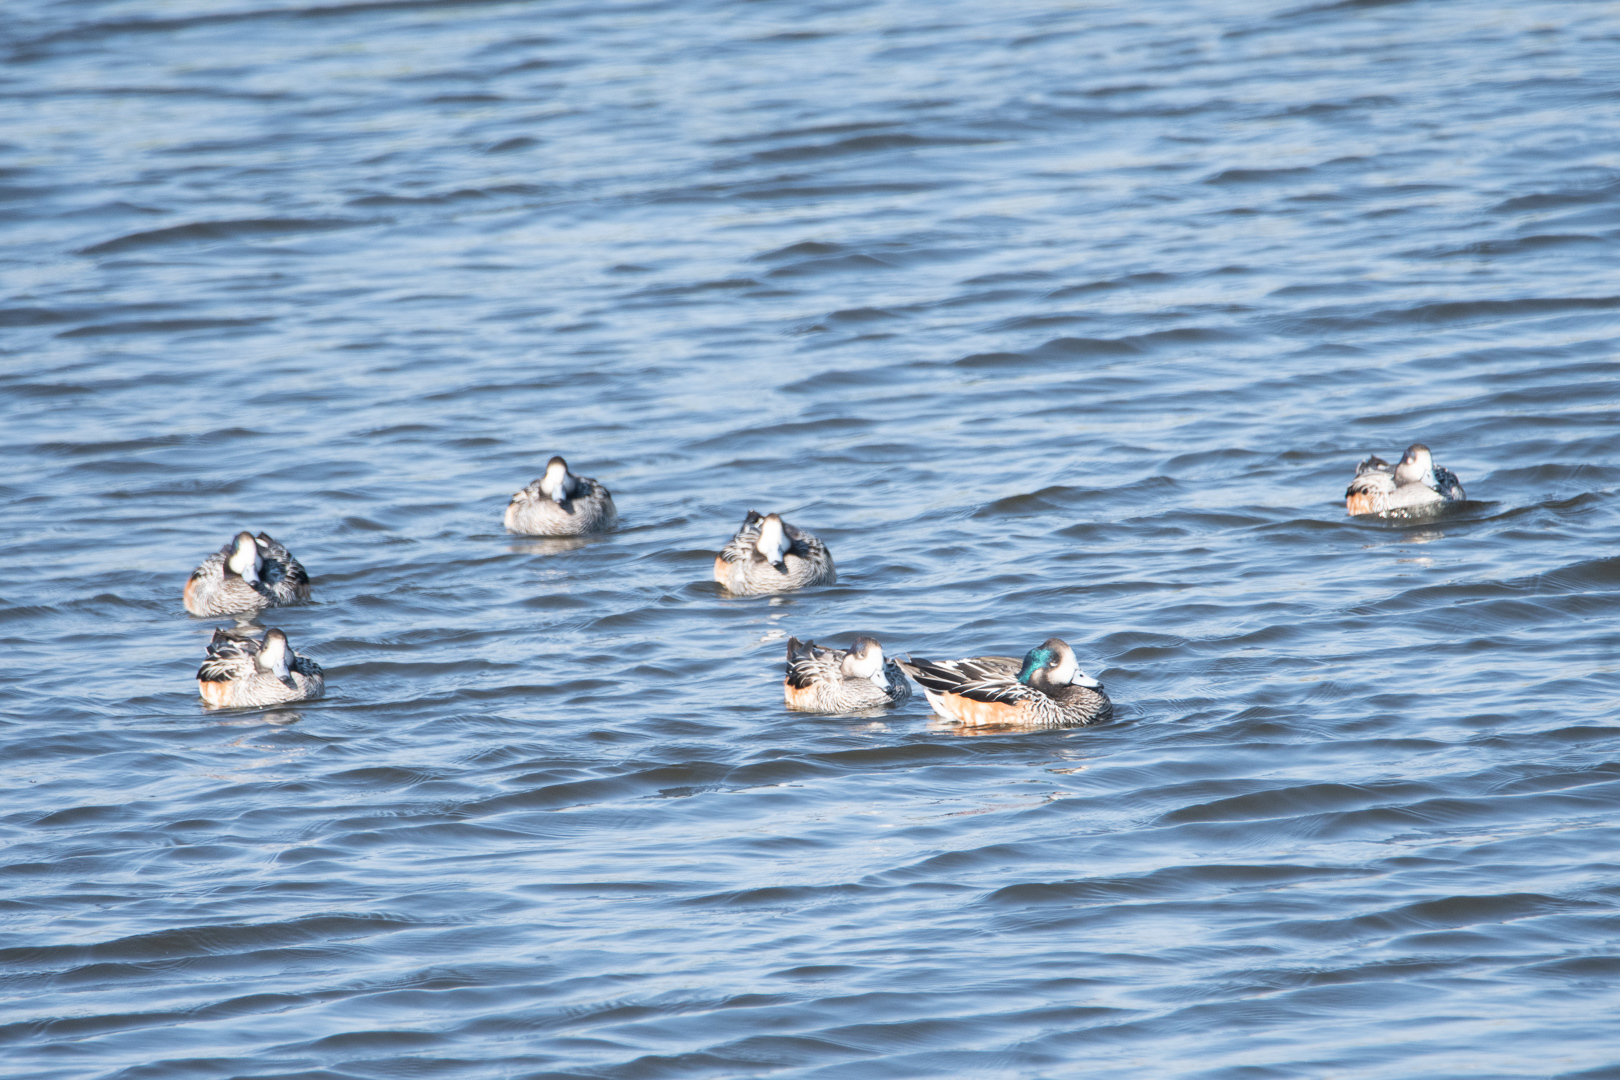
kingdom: Animalia
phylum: Chordata
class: Aves
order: Anseriformes
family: Anatidae
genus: Mareca
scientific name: Mareca sibilatrix
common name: Chiloe wigeon
